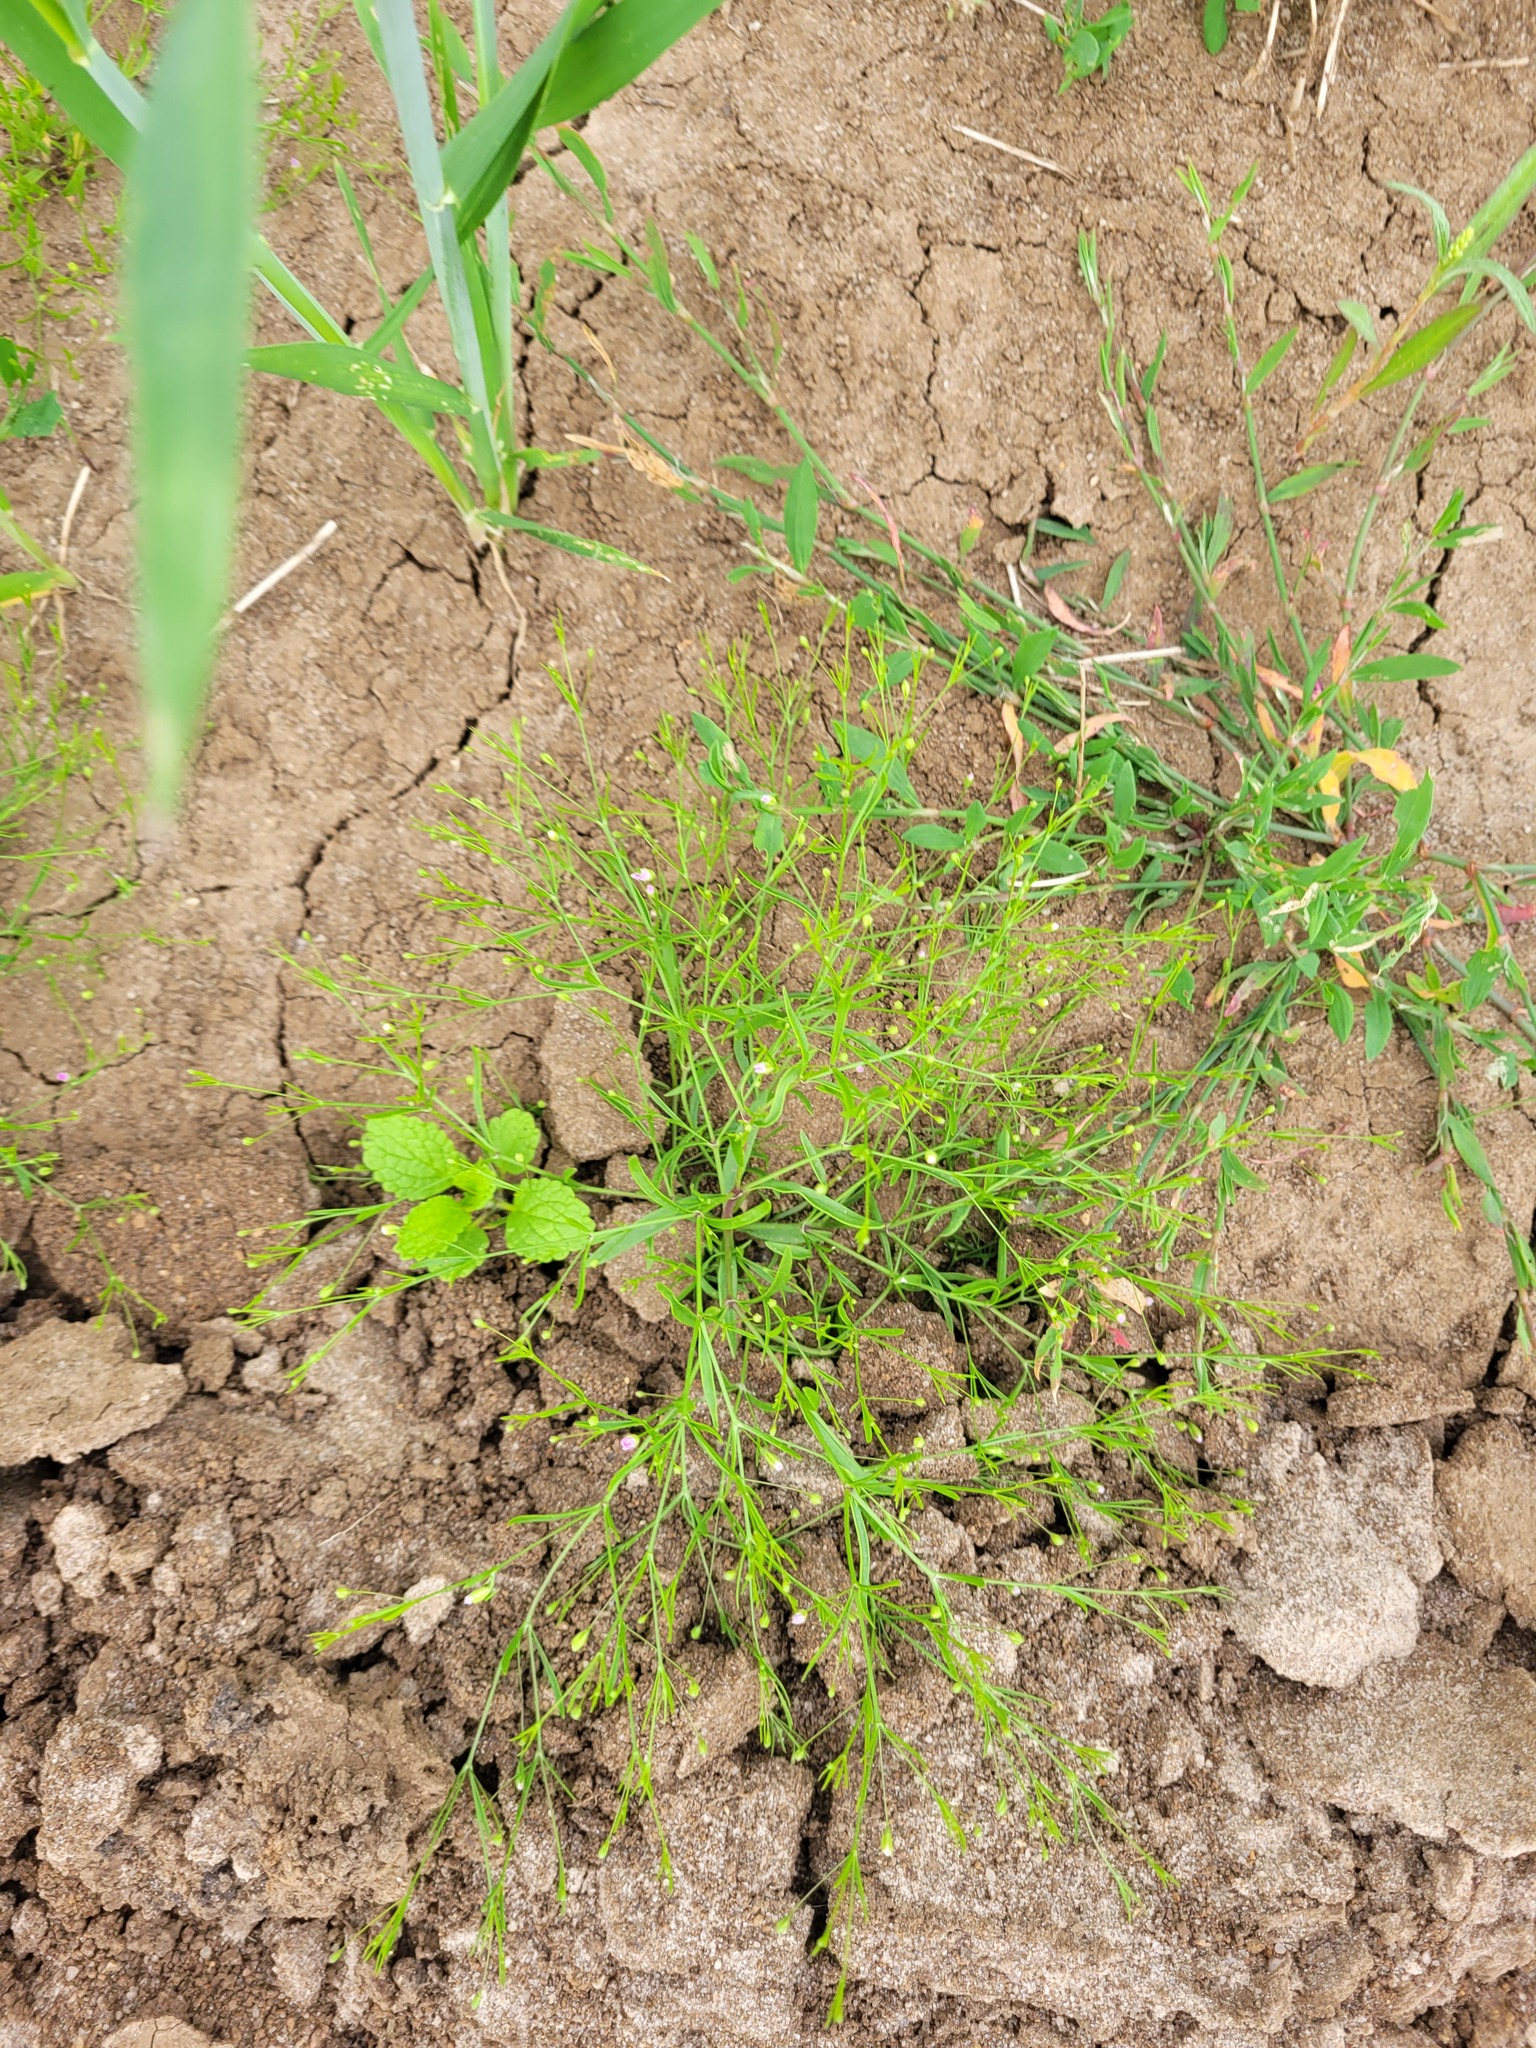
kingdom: Plantae
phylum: Tracheophyta
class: Magnoliopsida
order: Caryophyllales
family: Caryophyllaceae
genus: Psammophiliella
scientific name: Psammophiliella muralis
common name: Cushion baby's-breath
